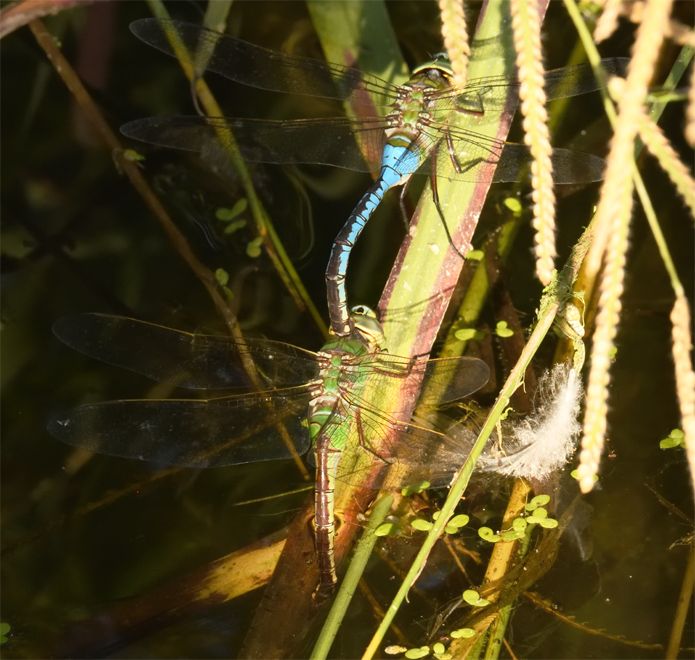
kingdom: Animalia
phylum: Arthropoda
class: Insecta
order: Odonata
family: Aeshnidae
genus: Anax
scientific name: Anax junius
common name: Common green darner
